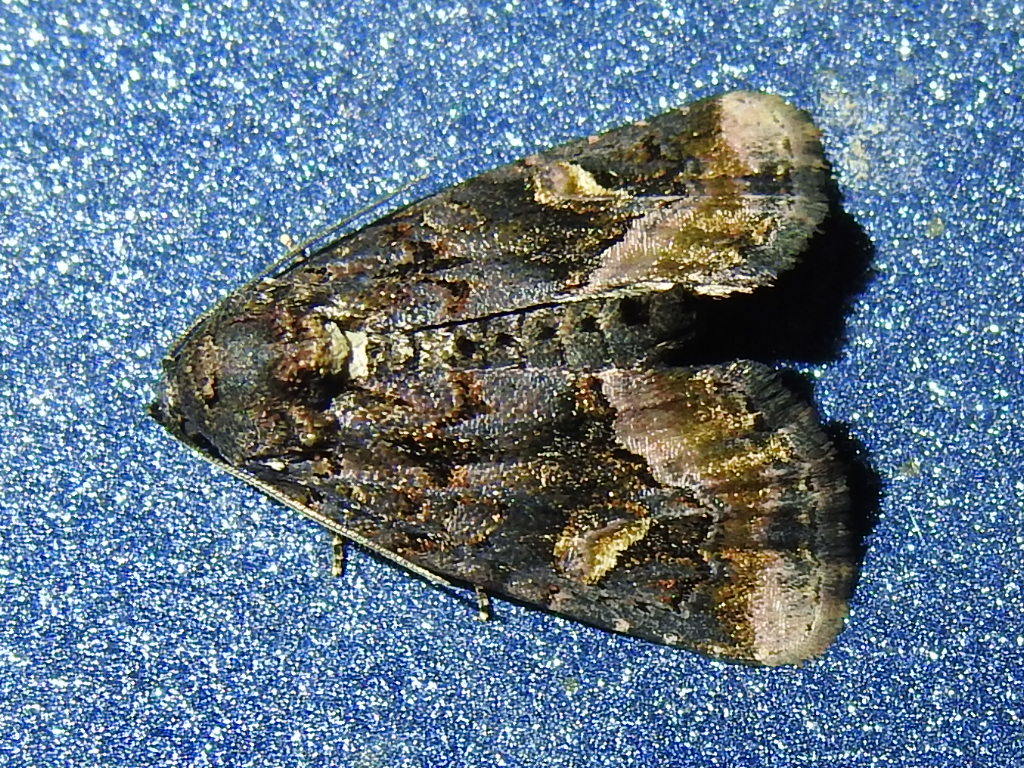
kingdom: Animalia
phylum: Arthropoda
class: Insecta
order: Lepidoptera
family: Noctuidae
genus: Homophoberia
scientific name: Homophoberia apicosa
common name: Black wedge-spot
